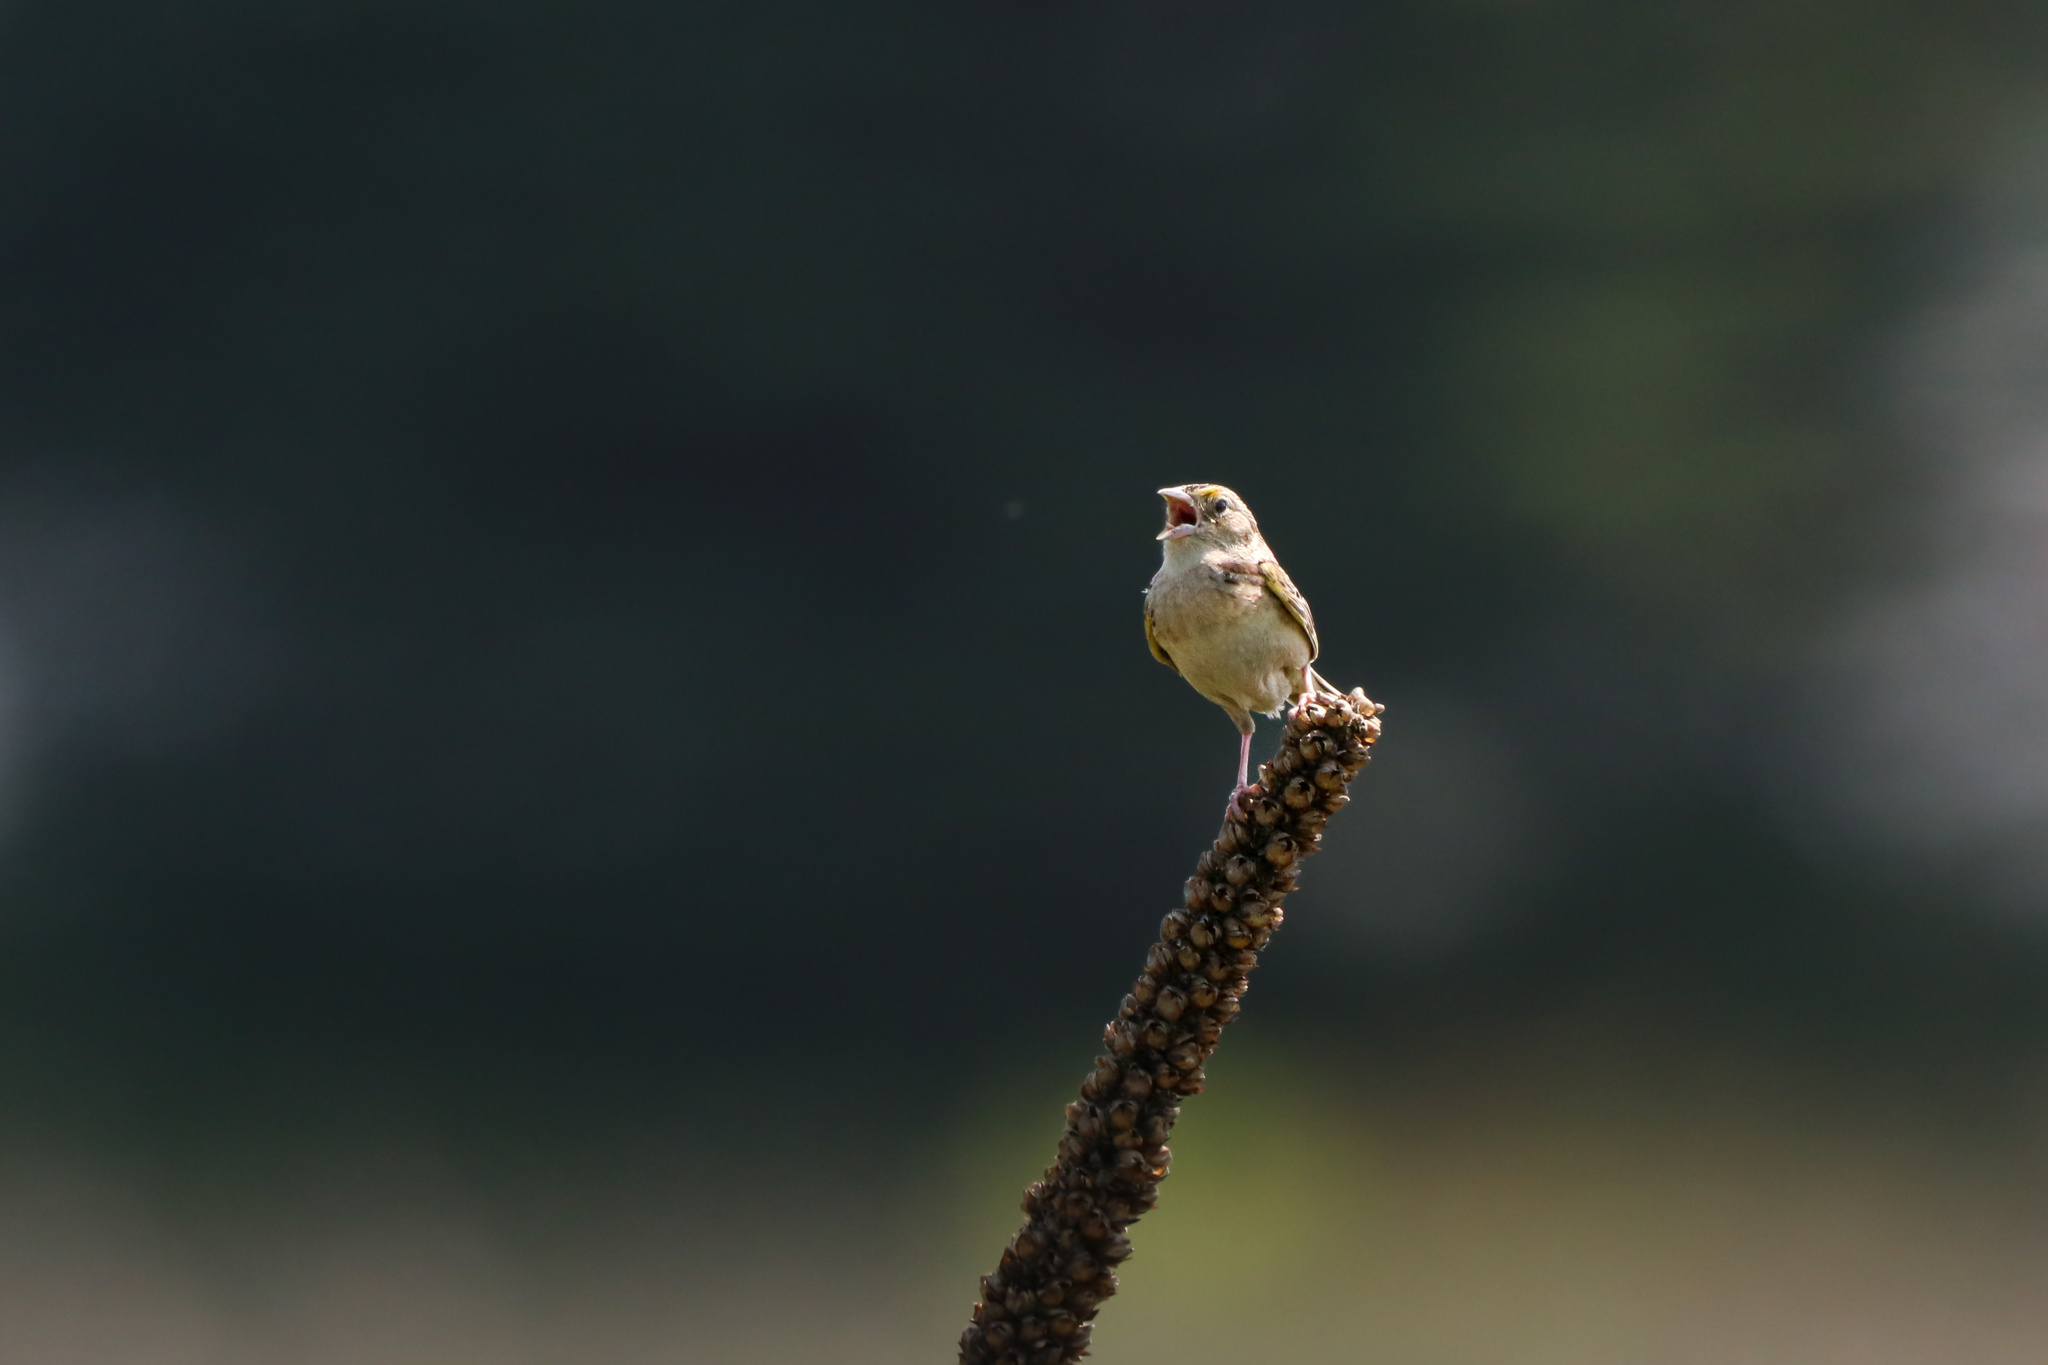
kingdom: Animalia
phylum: Chordata
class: Aves
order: Passeriformes
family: Passerellidae
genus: Ammodramus
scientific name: Ammodramus savannarum
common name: Grasshopper sparrow
